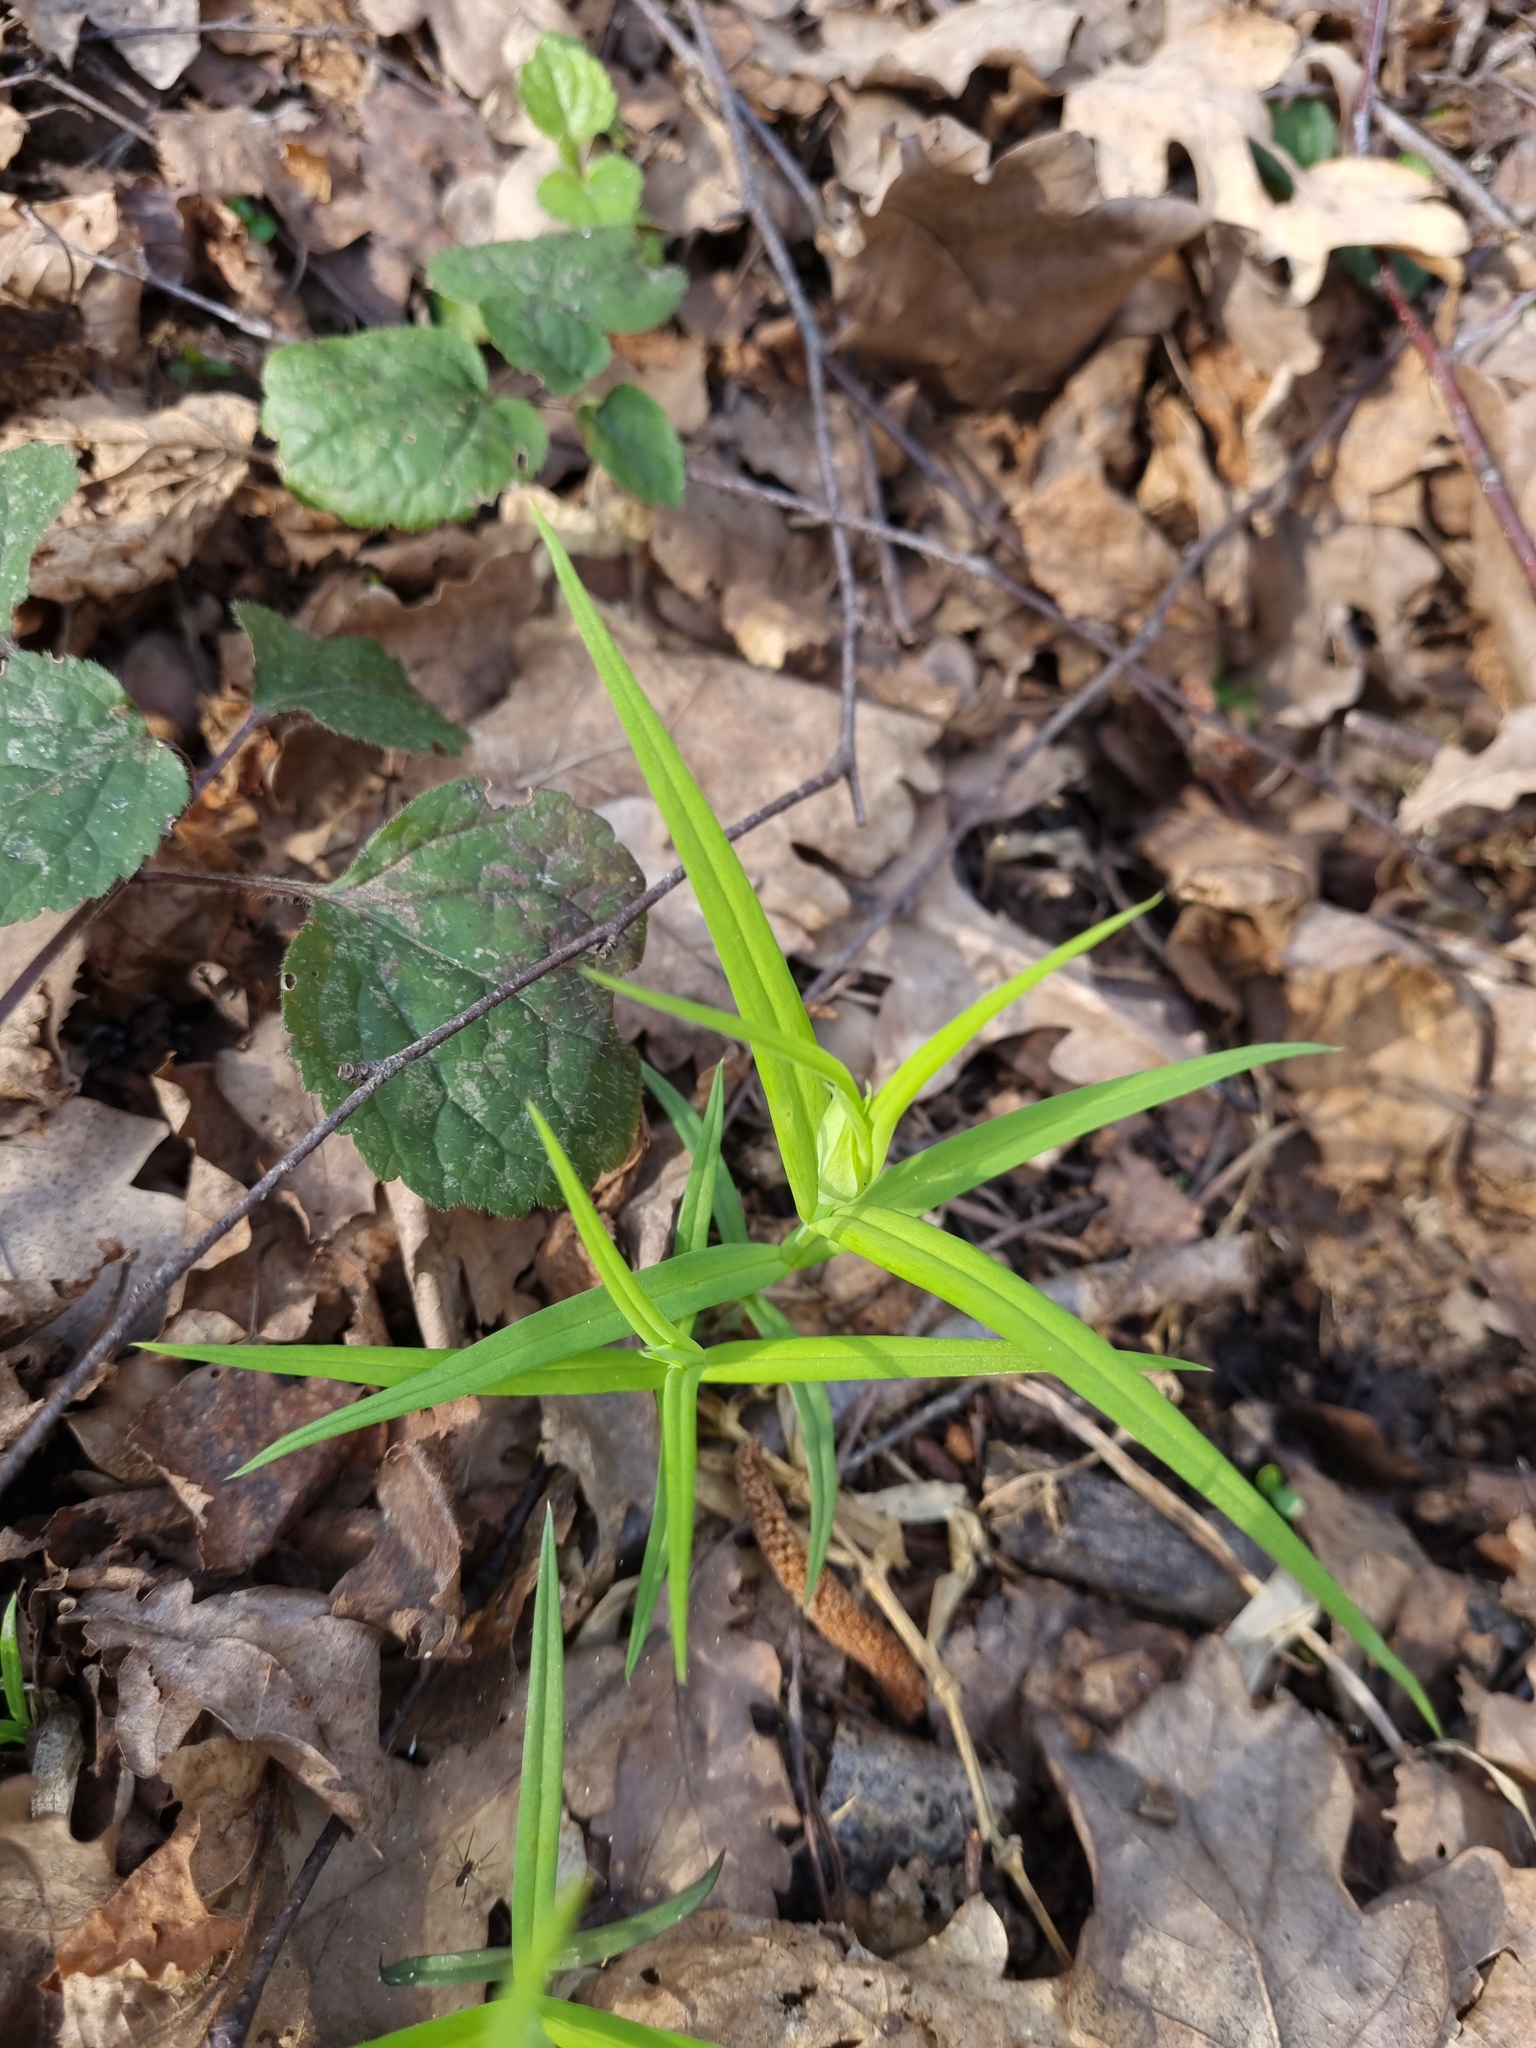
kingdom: Plantae
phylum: Tracheophyta
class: Magnoliopsida
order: Caryophyllales
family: Caryophyllaceae
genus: Rabelera
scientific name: Rabelera holostea
